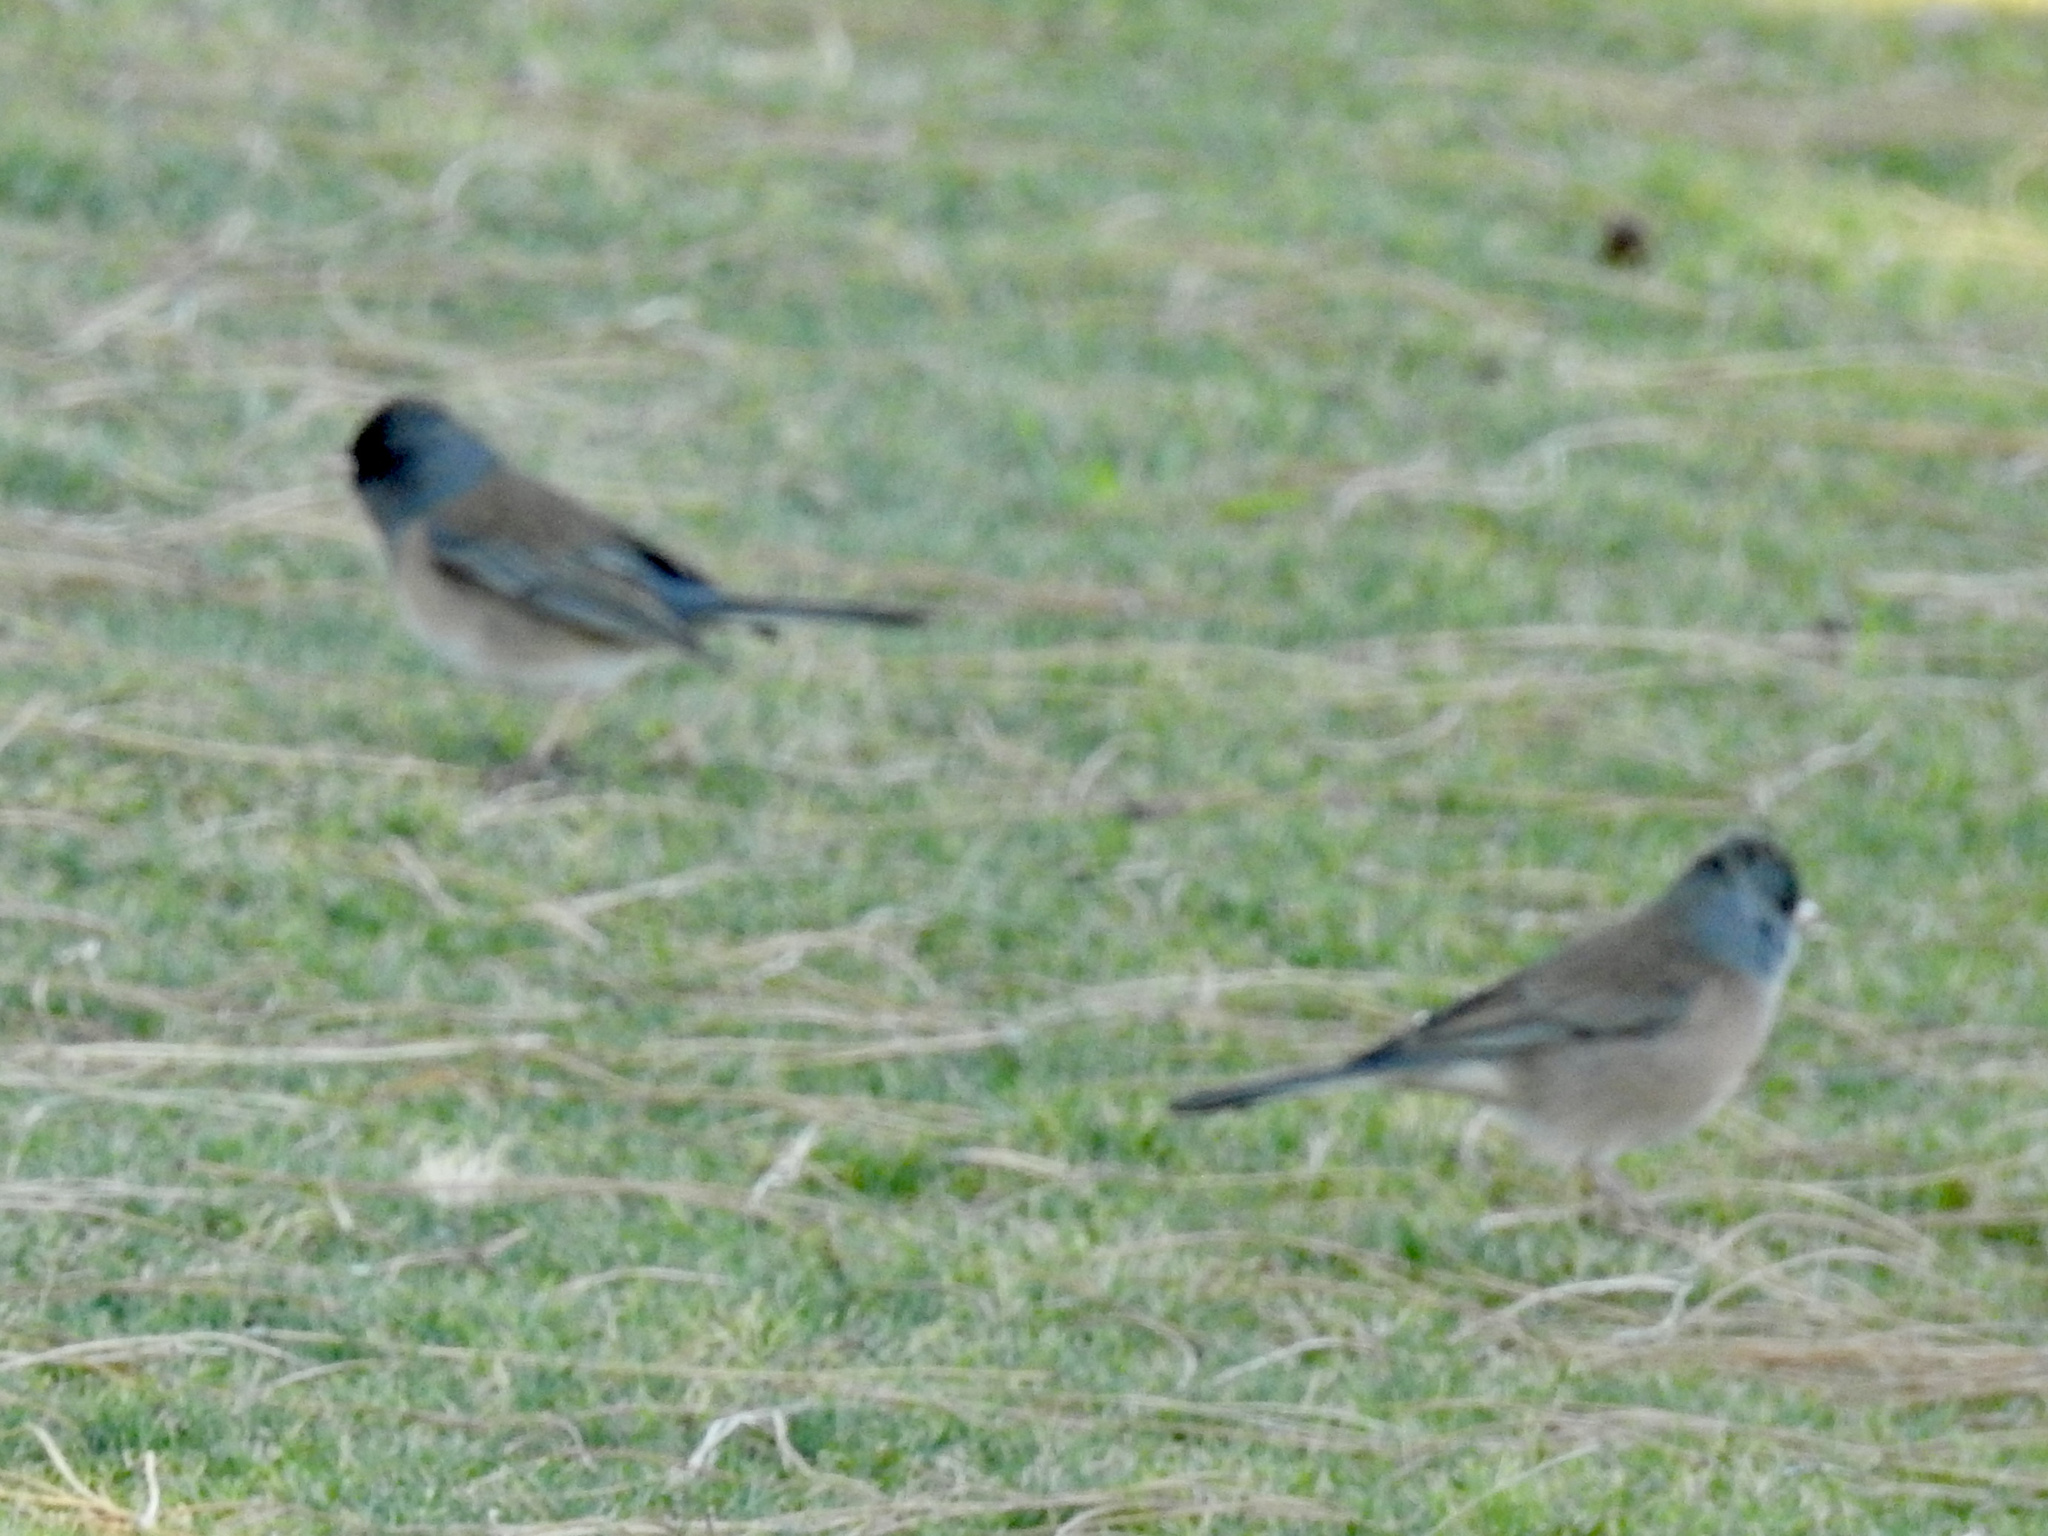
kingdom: Animalia
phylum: Chordata
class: Aves
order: Passeriformes
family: Passerellidae
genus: Junco
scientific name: Junco hyemalis
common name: Dark-eyed junco
